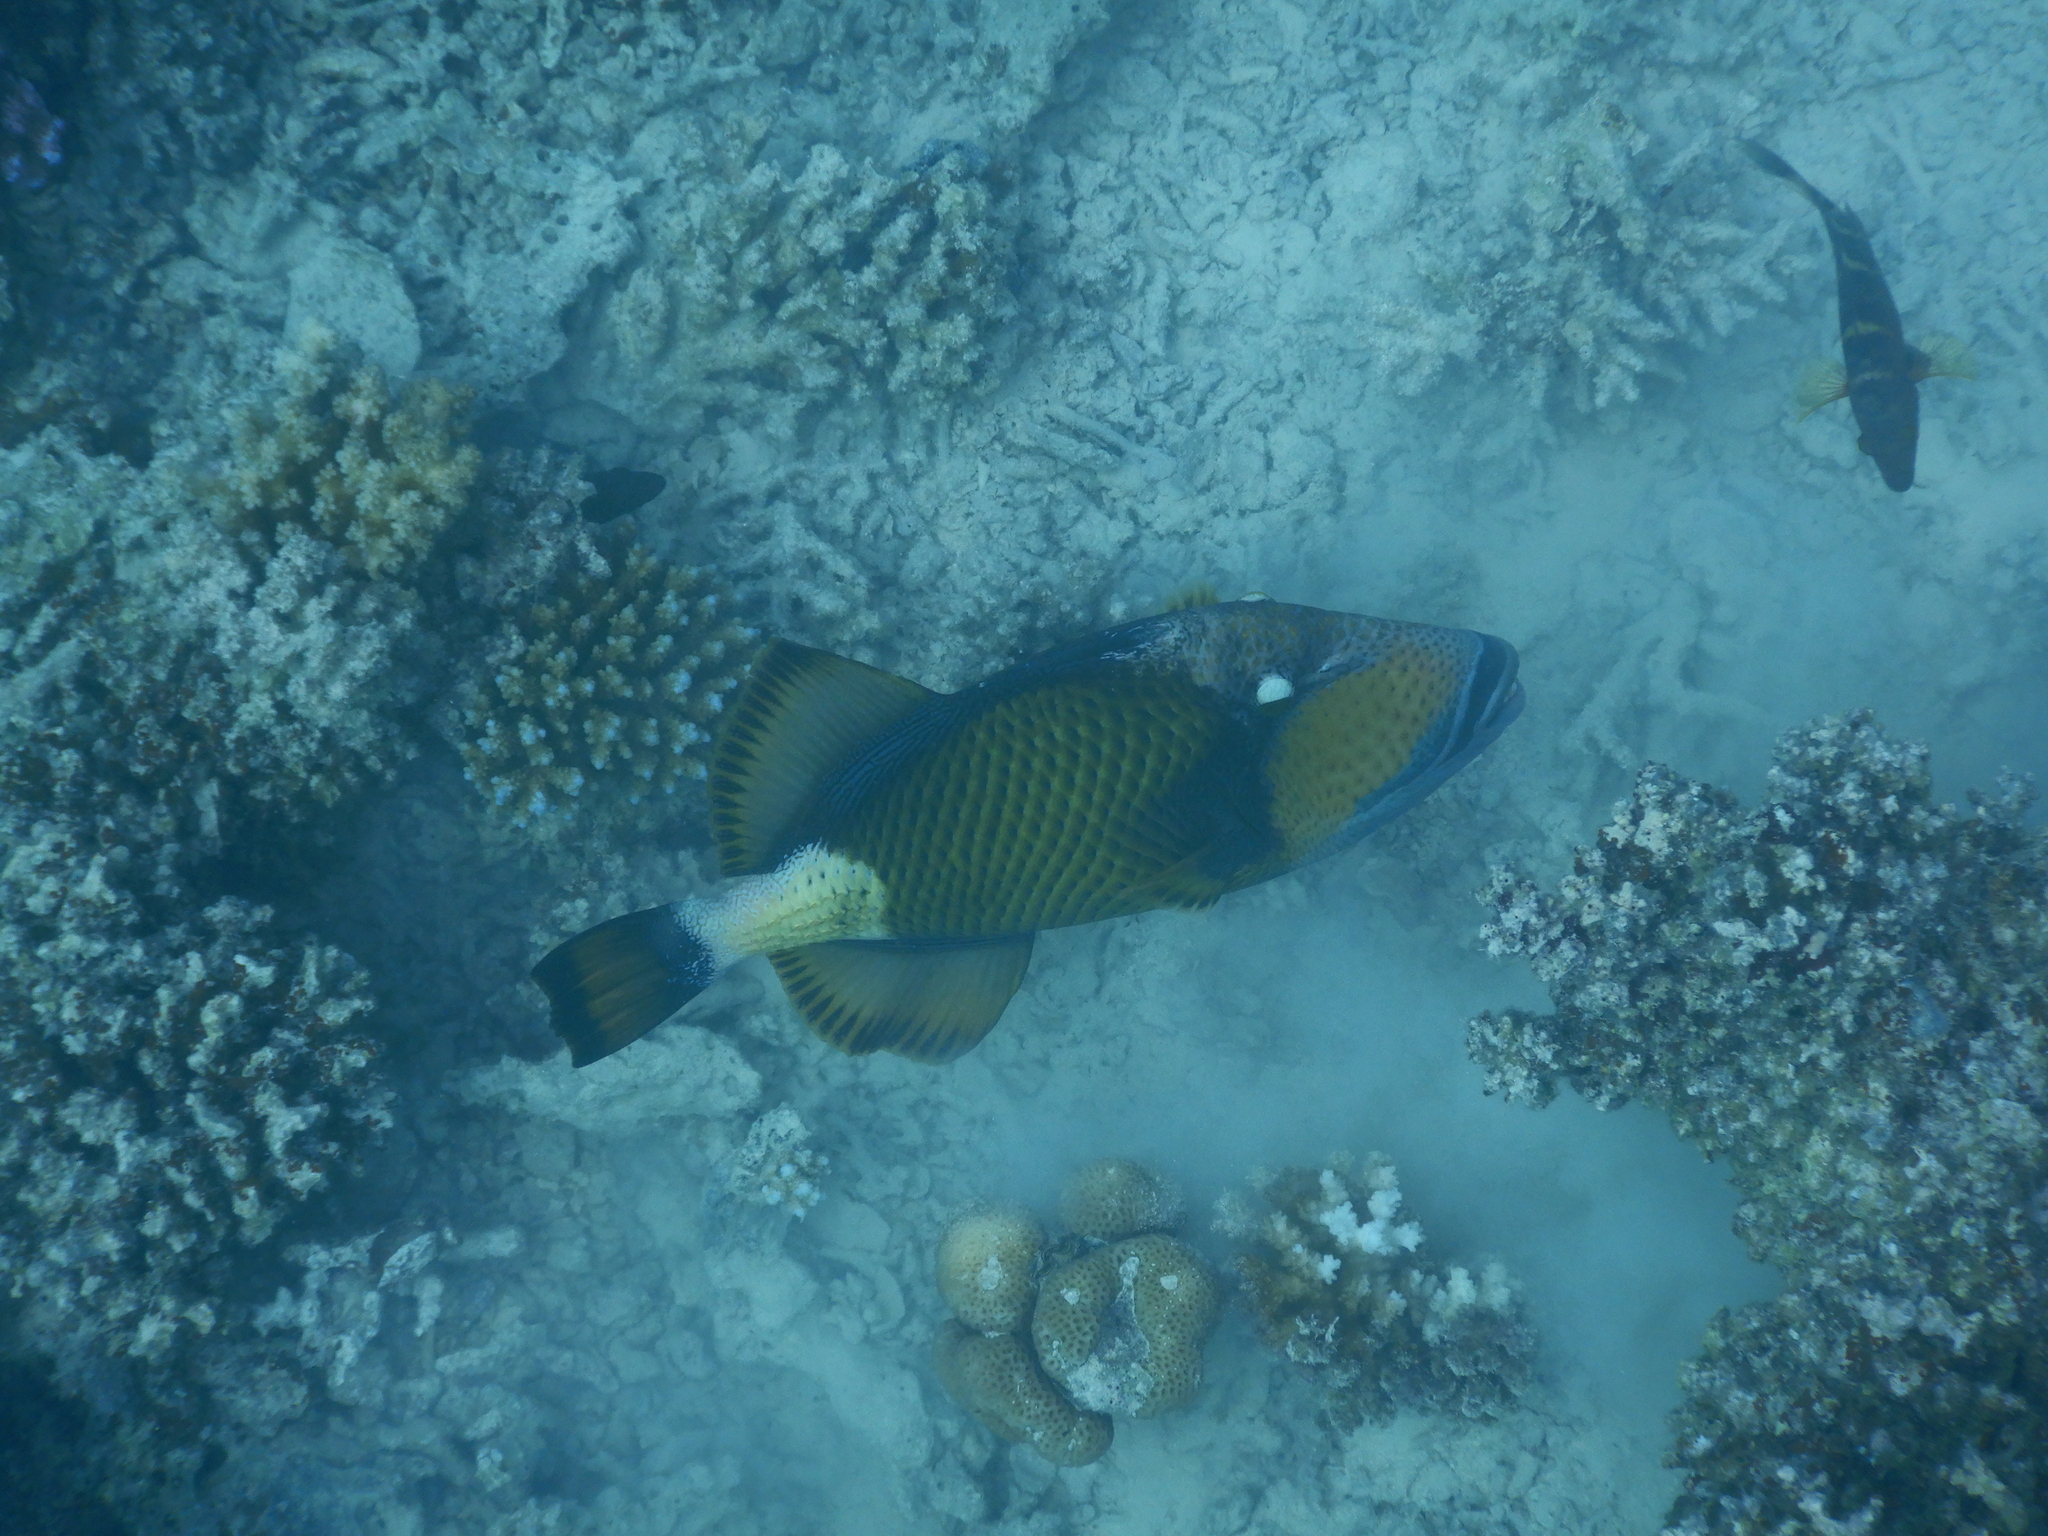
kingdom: Animalia
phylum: Chordata
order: Tetraodontiformes
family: Balistidae
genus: Balistoides
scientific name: Balistoides viridescens
